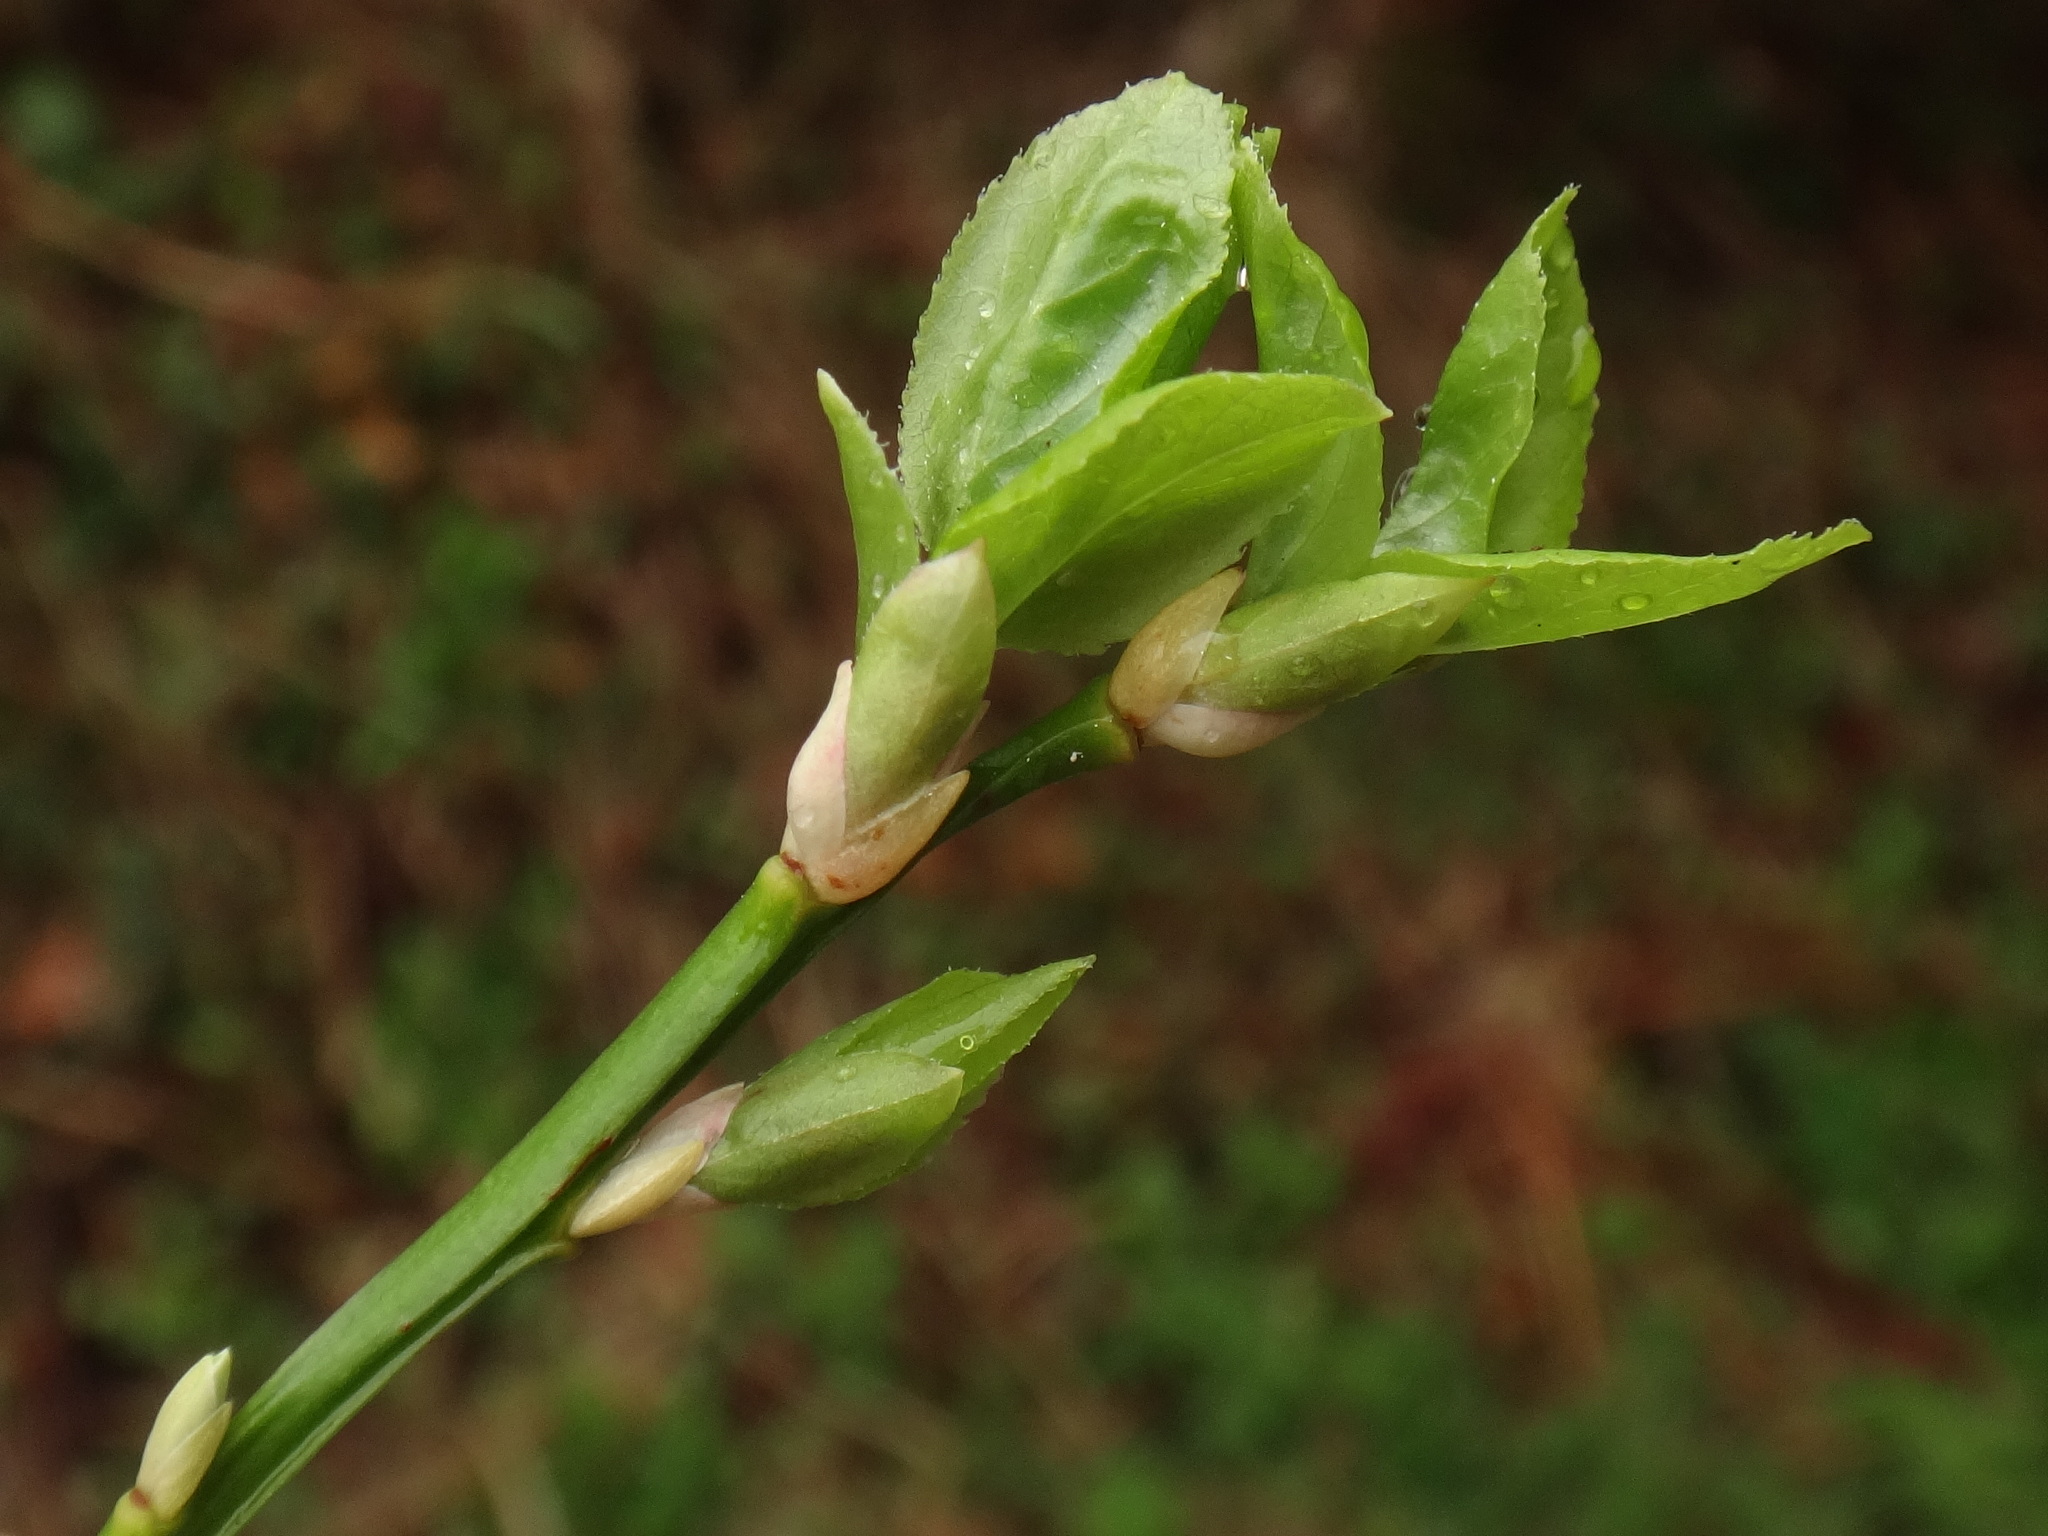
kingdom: Plantae
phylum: Tracheophyta
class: Magnoliopsida
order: Ericales
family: Ericaceae
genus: Vaccinium
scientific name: Vaccinium myrtillus
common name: Bilberry
